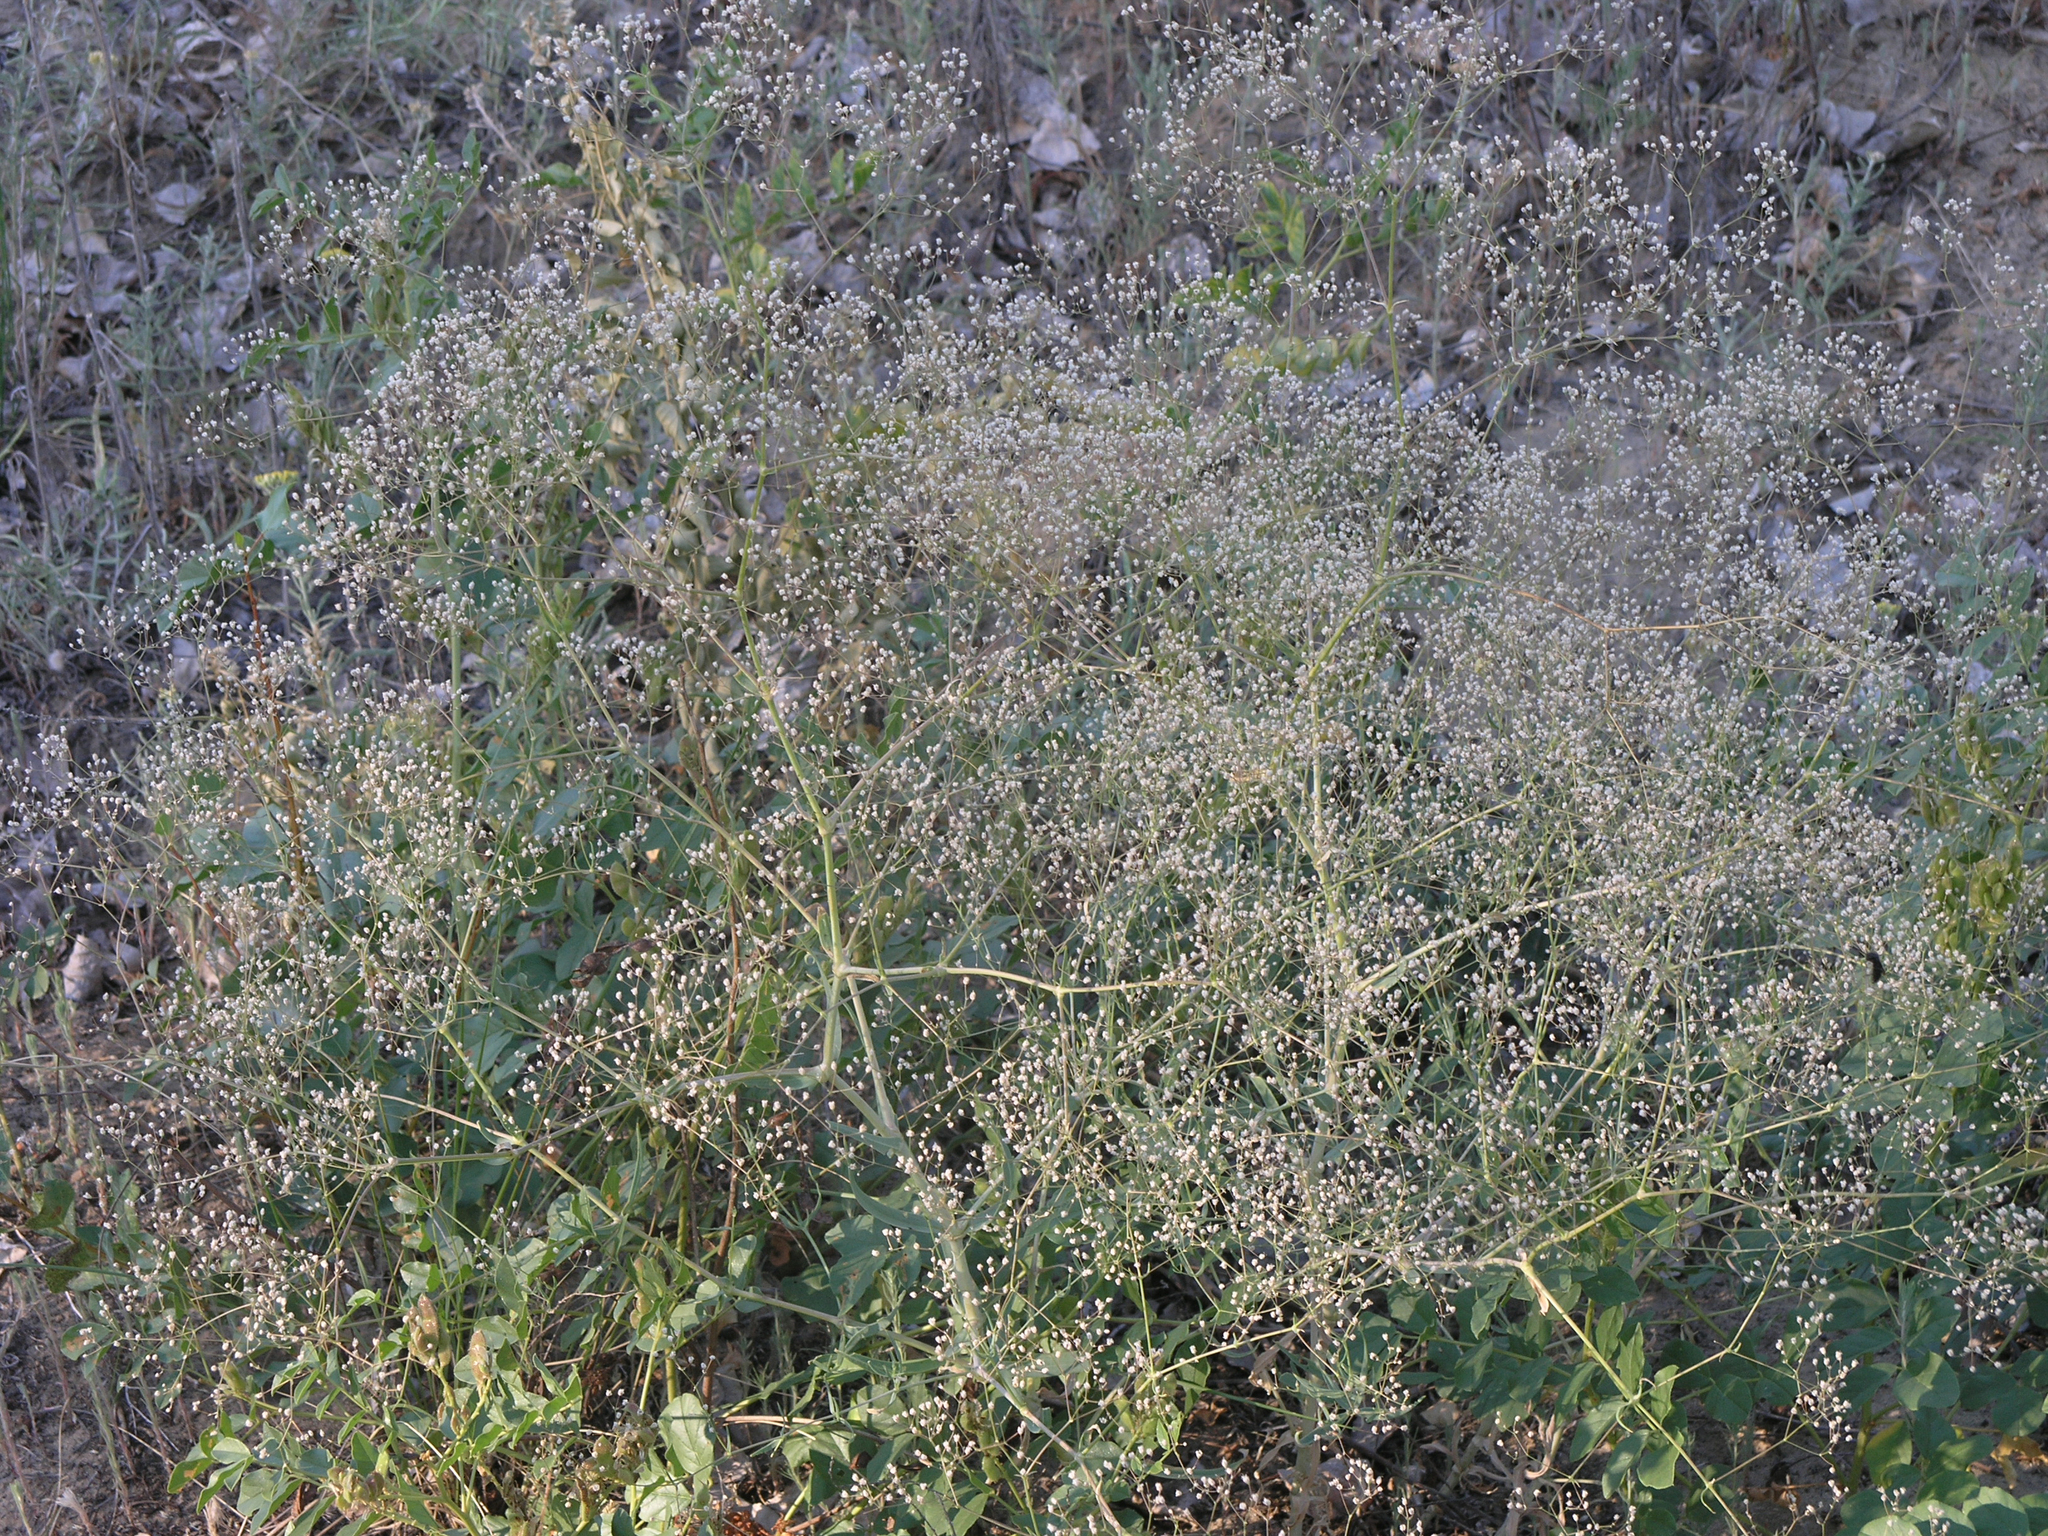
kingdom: Plantae
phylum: Tracheophyta
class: Magnoliopsida
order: Caryophyllales
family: Caryophyllaceae
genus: Gypsophila
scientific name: Gypsophila paniculata
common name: Baby's-breath
